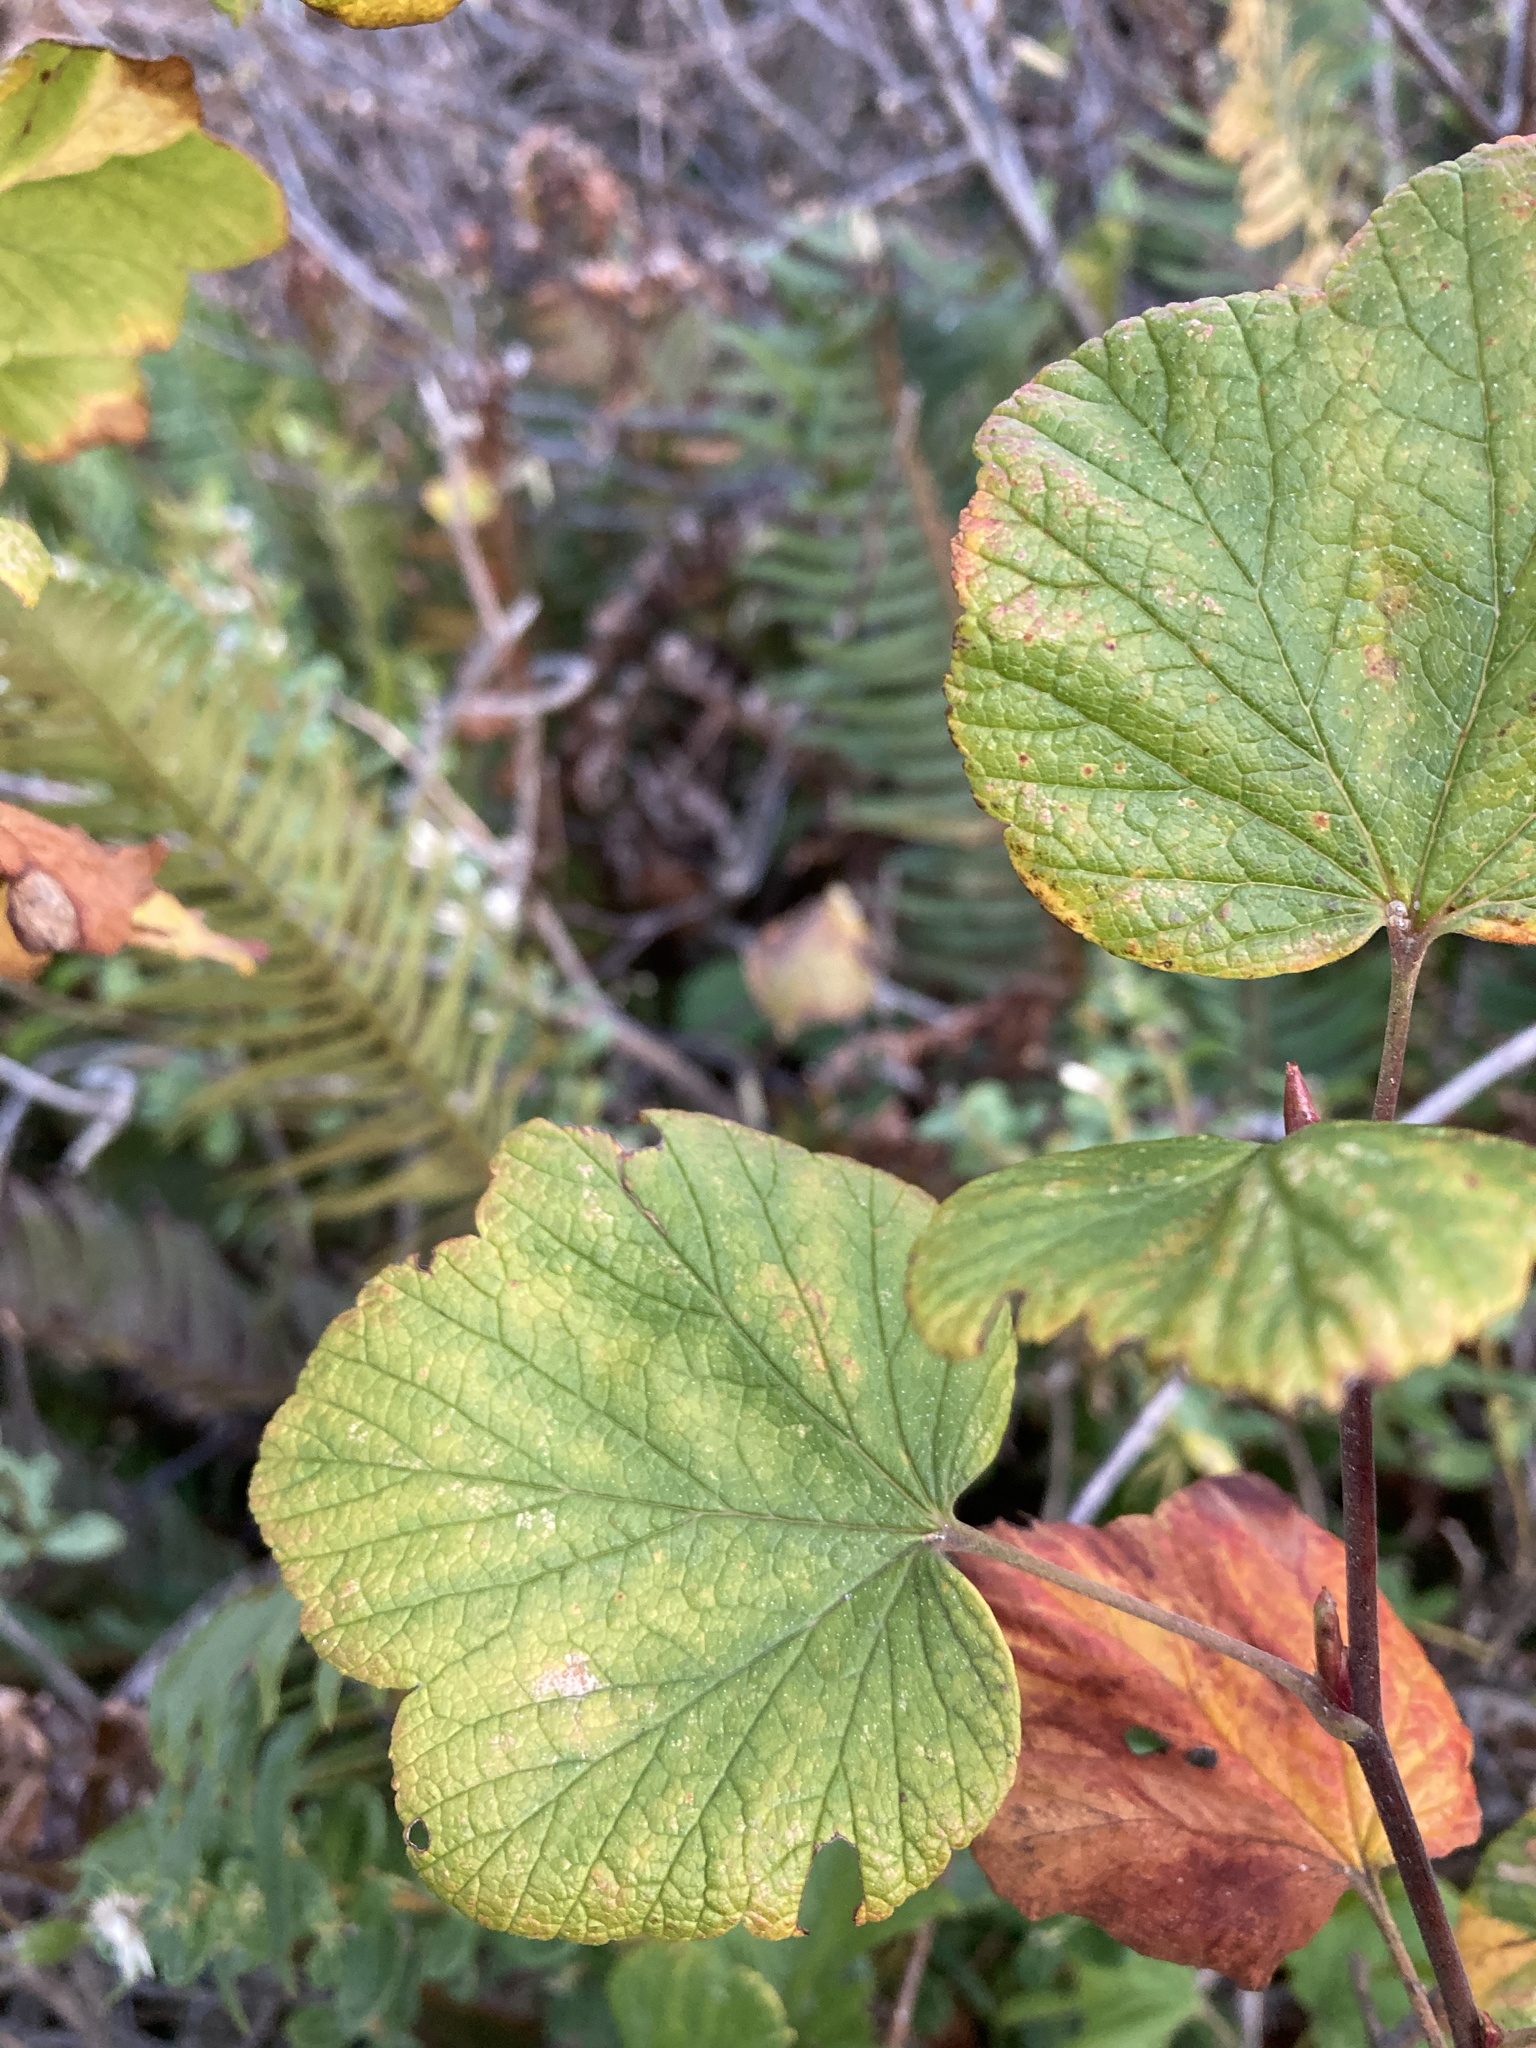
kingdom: Plantae
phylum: Tracheophyta
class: Magnoliopsida
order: Saxifragales
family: Grossulariaceae
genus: Ribes
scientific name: Ribes sanguineum
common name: Flowering currant
